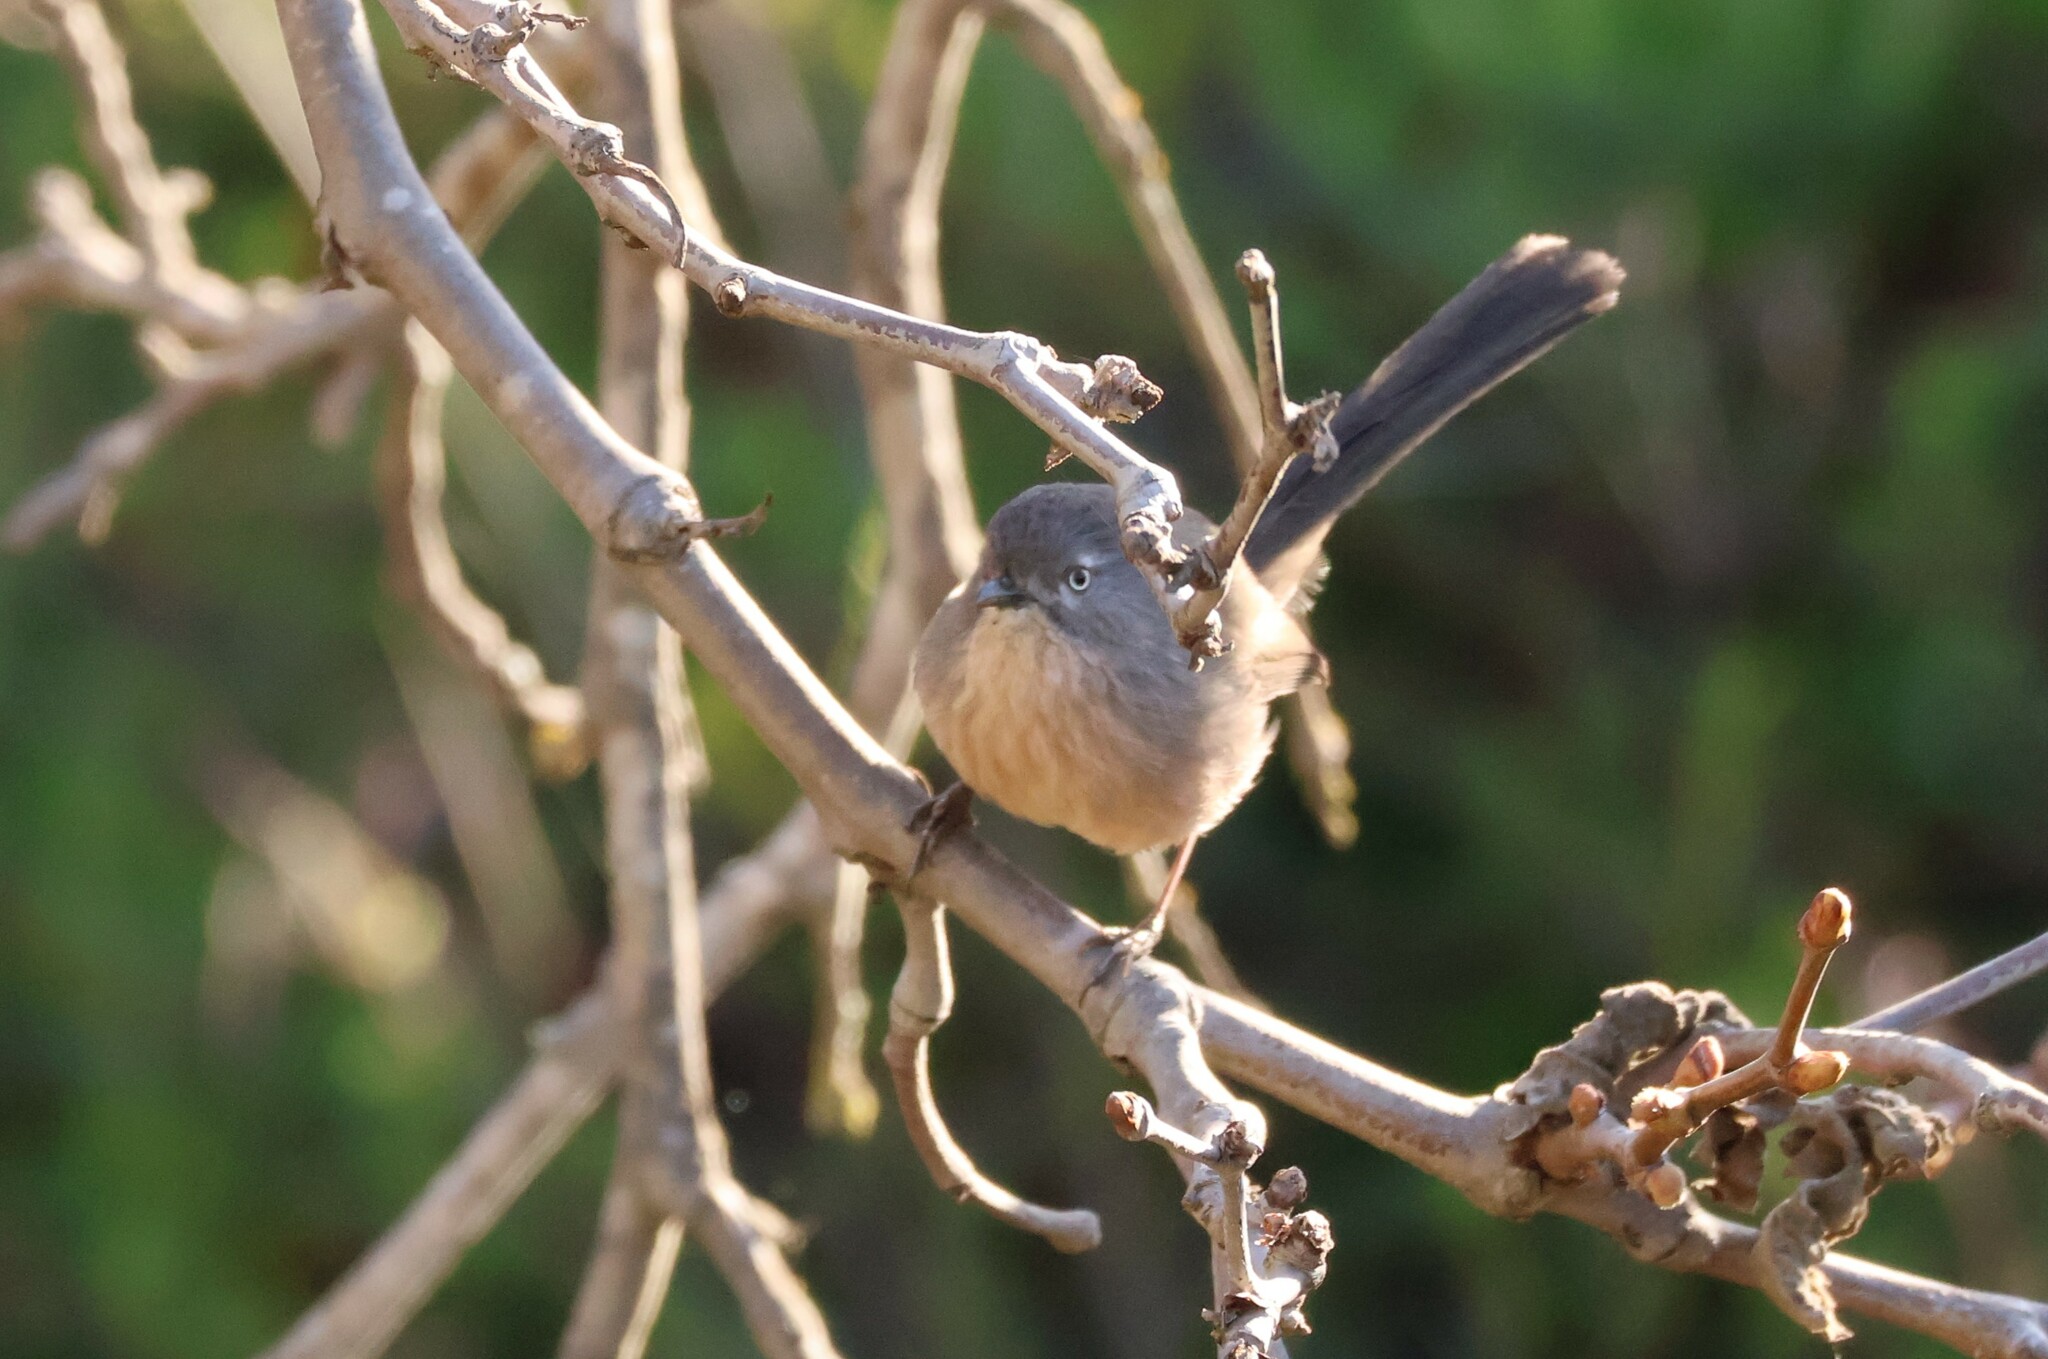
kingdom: Animalia
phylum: Chordata
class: Aves
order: Passeriformes
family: Sylviidae
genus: Chamaea
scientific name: Chamaea fasciata
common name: Wrentit
